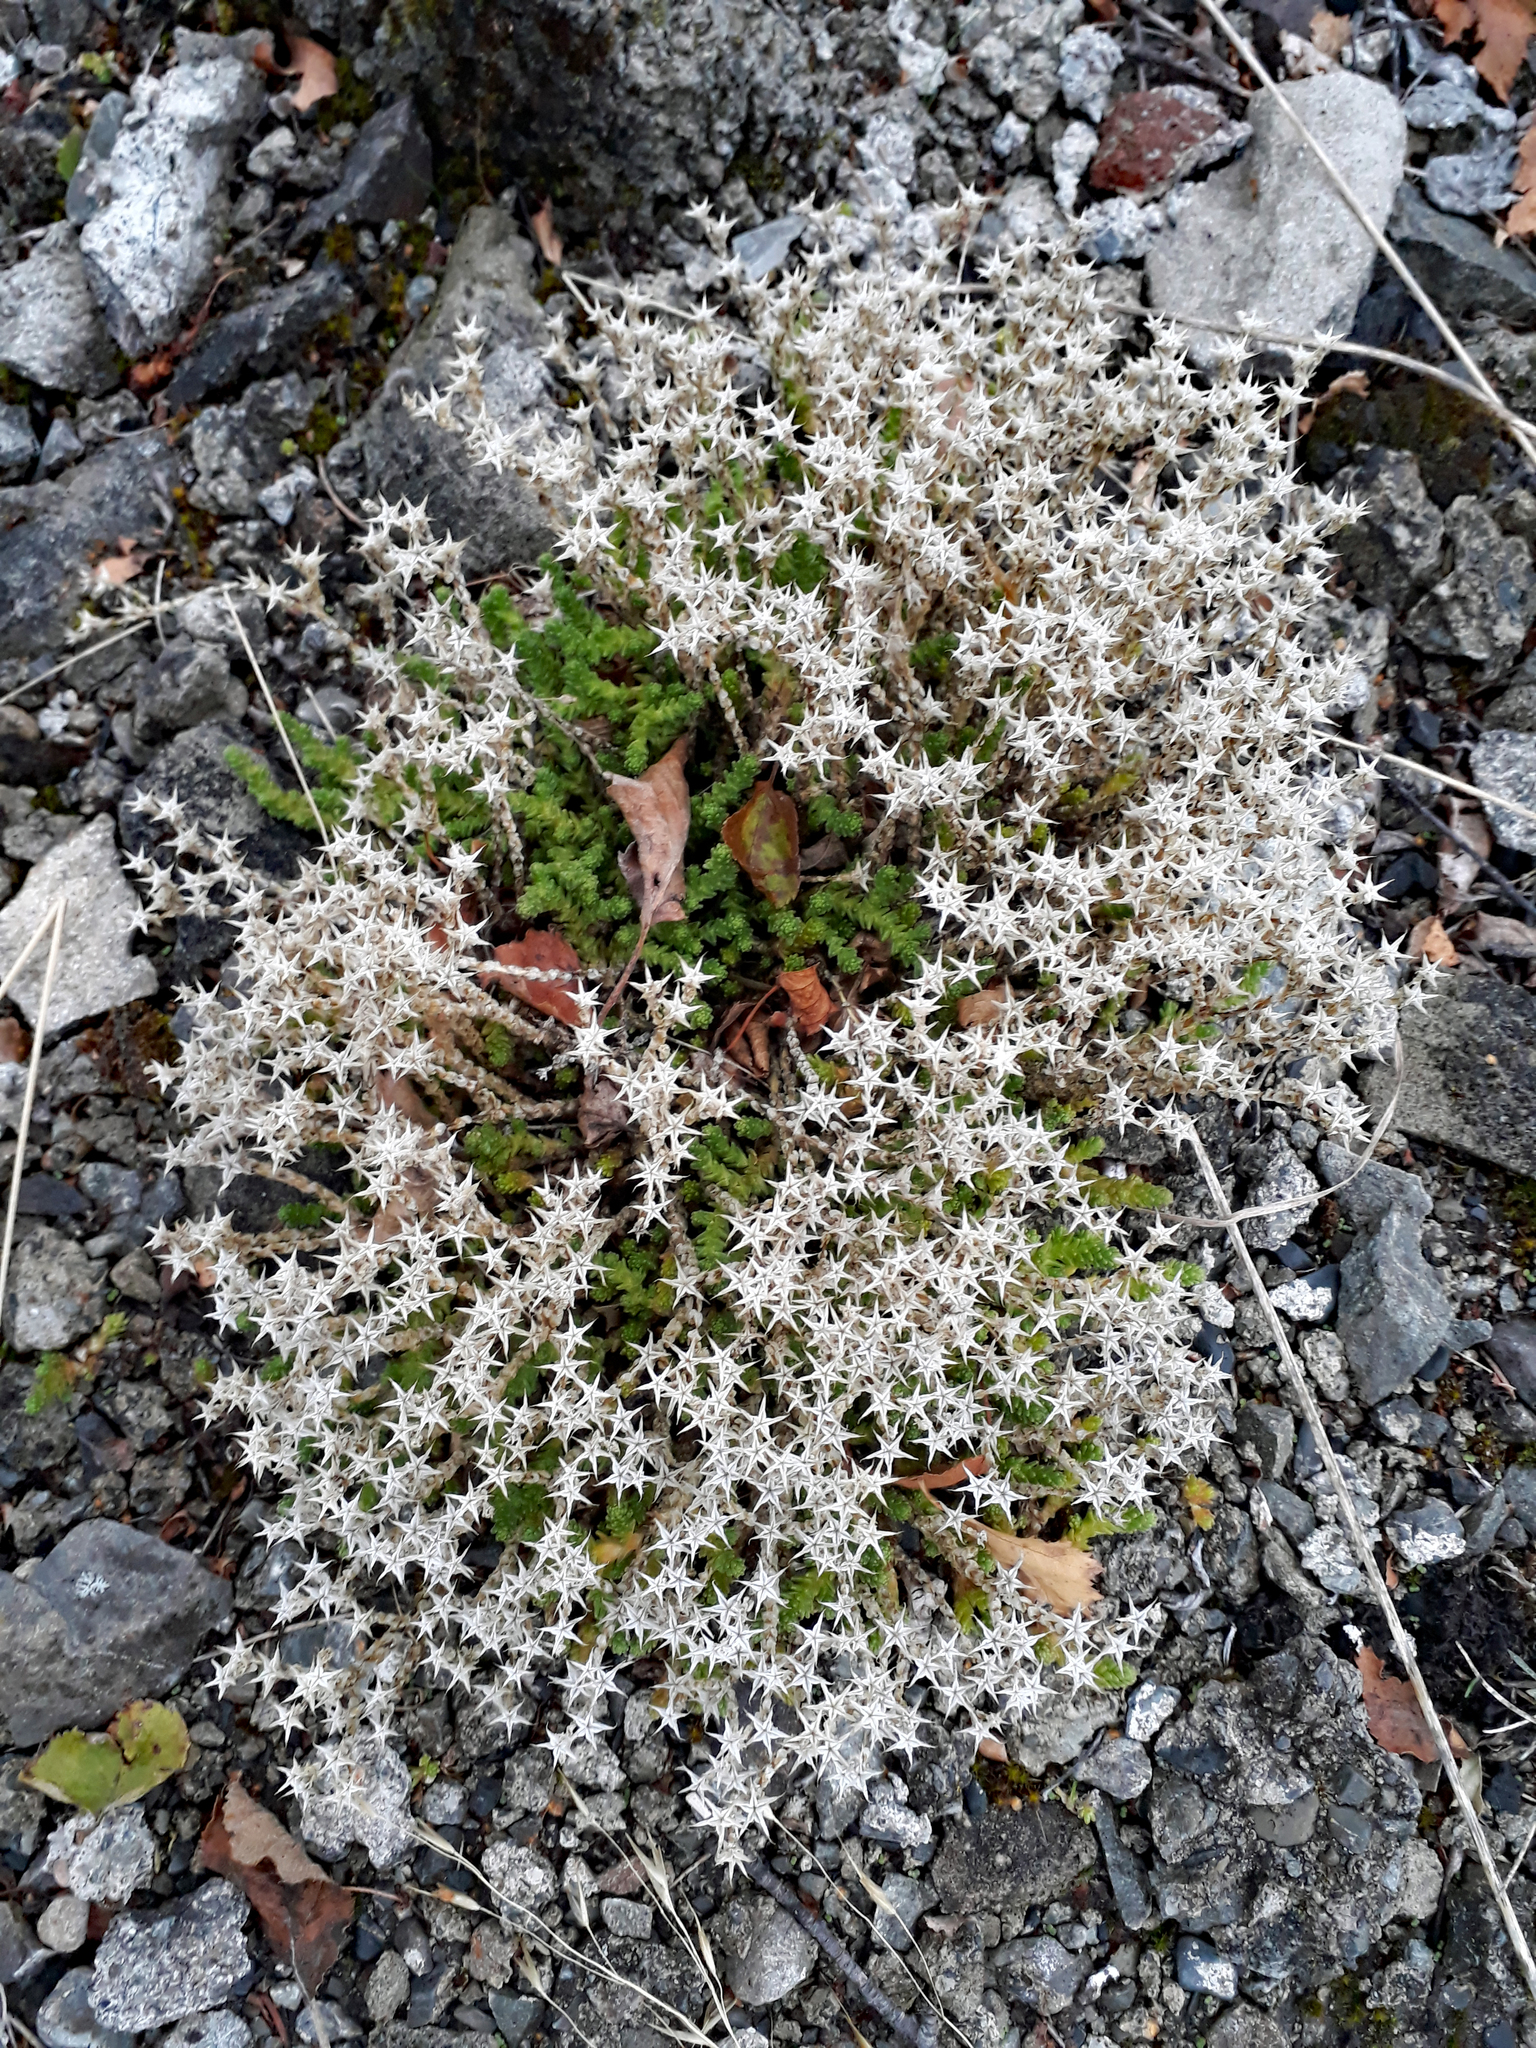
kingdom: Plantae
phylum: Tracheophyta
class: Magnoliopsida
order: Saxifragales
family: Crassulaceae
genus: Sedum
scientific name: Sedum acre
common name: Biting stonecrop
